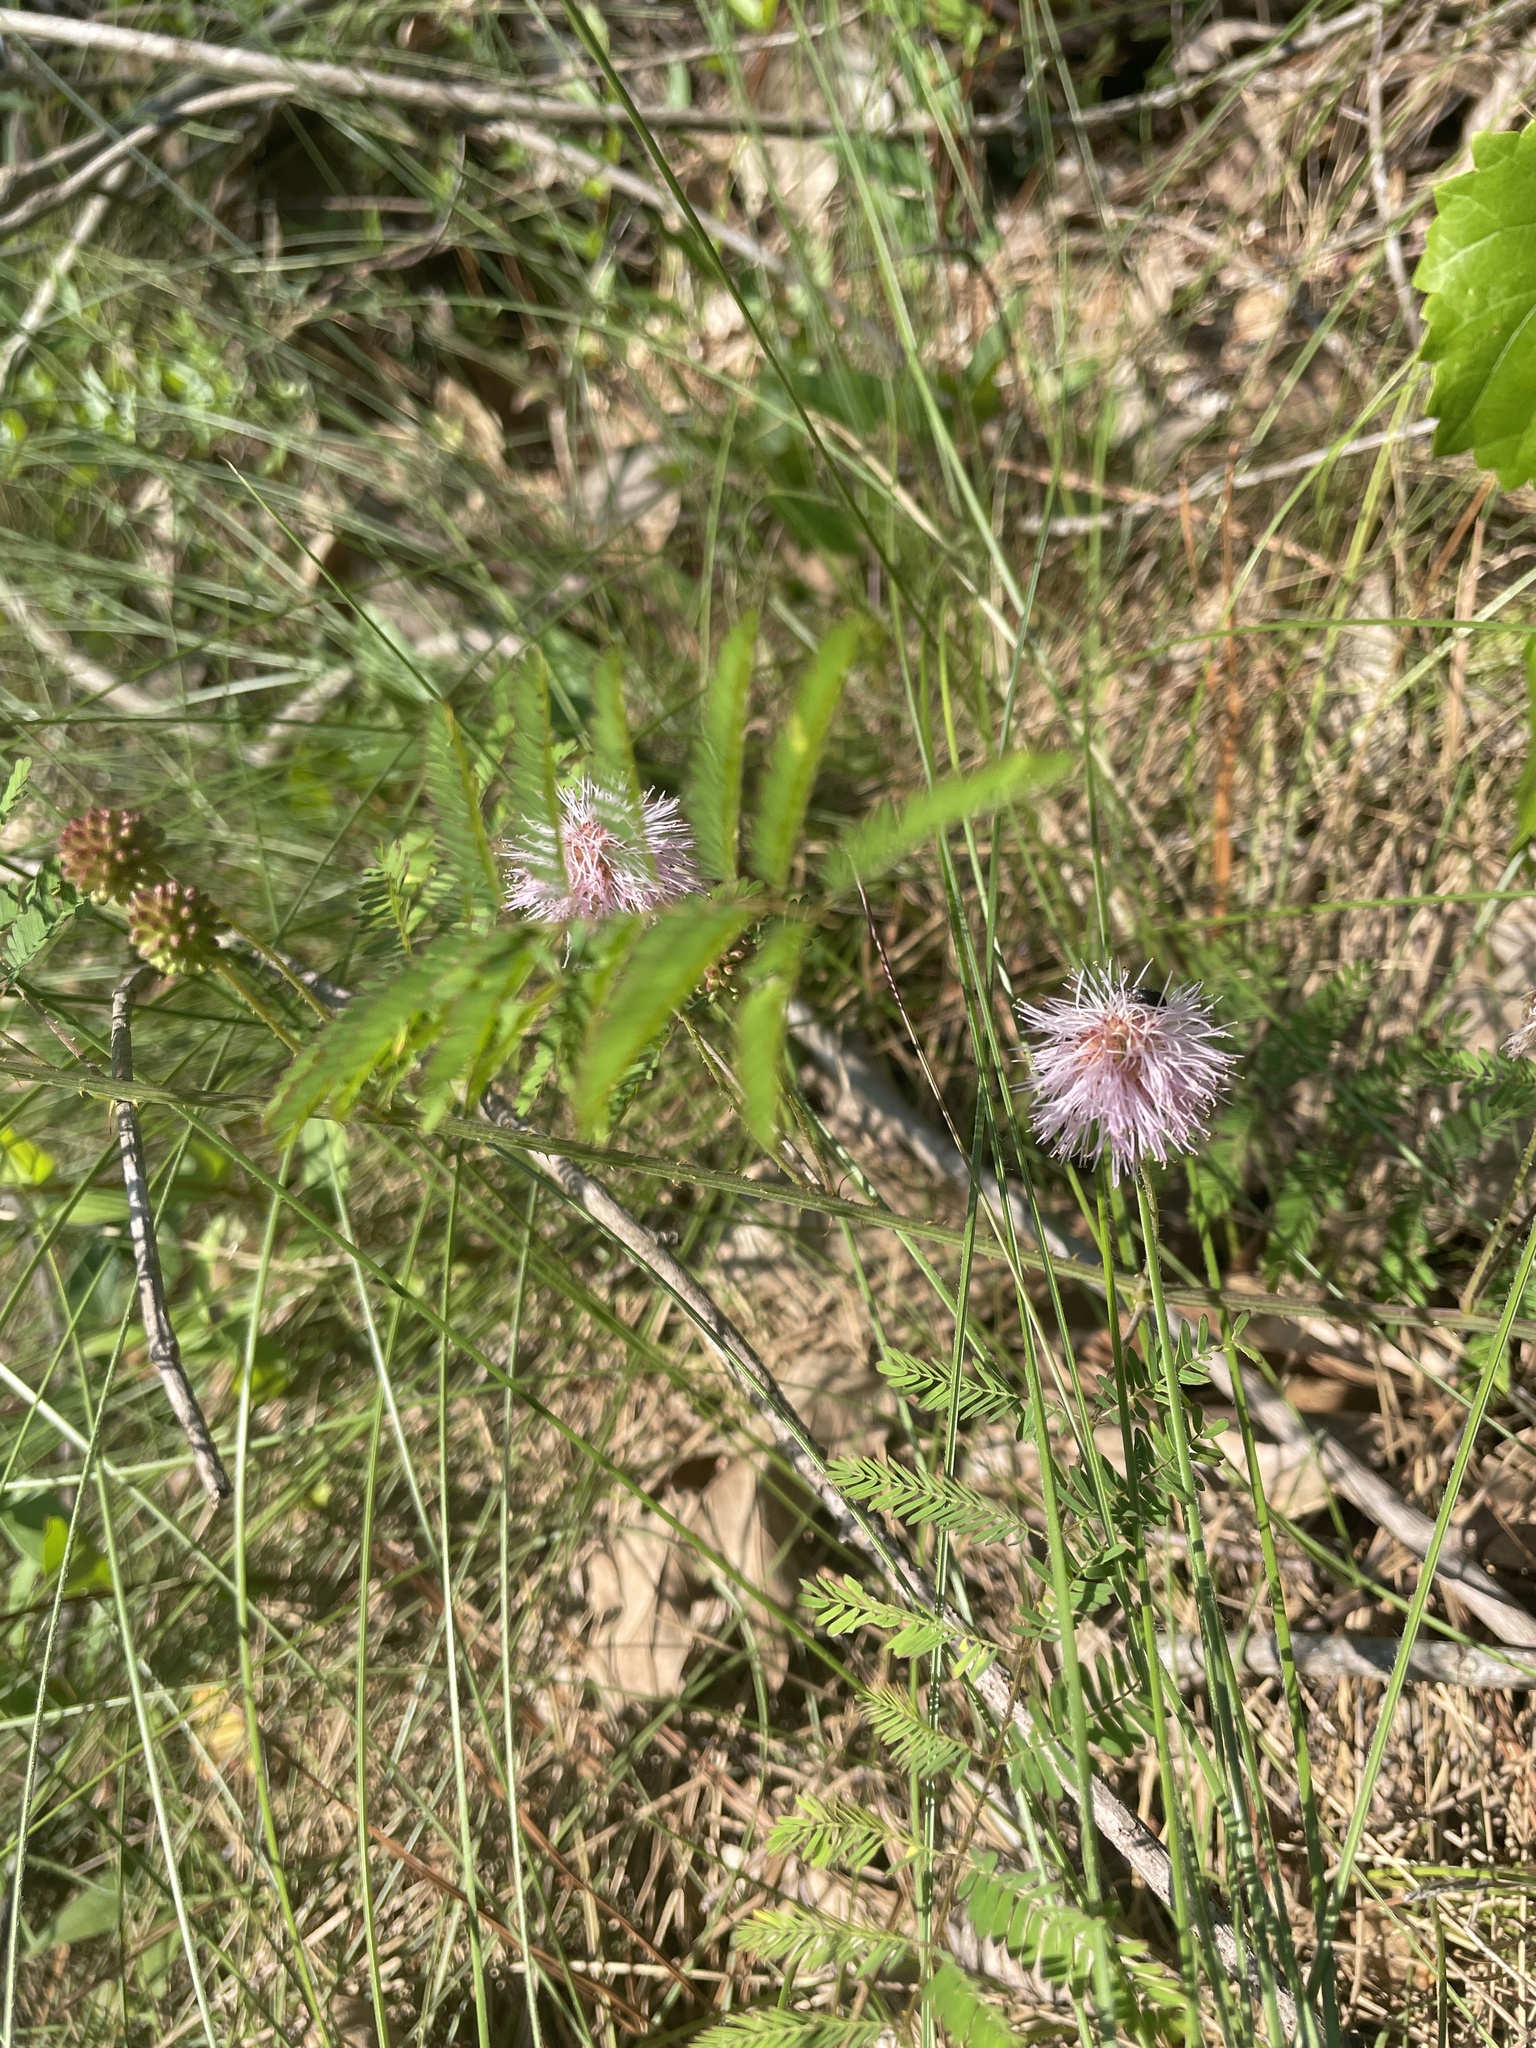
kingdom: Plantae
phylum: Tracheophyta
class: Magnoliopsida
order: Fabales
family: Fabaceae
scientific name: Fabaceae
